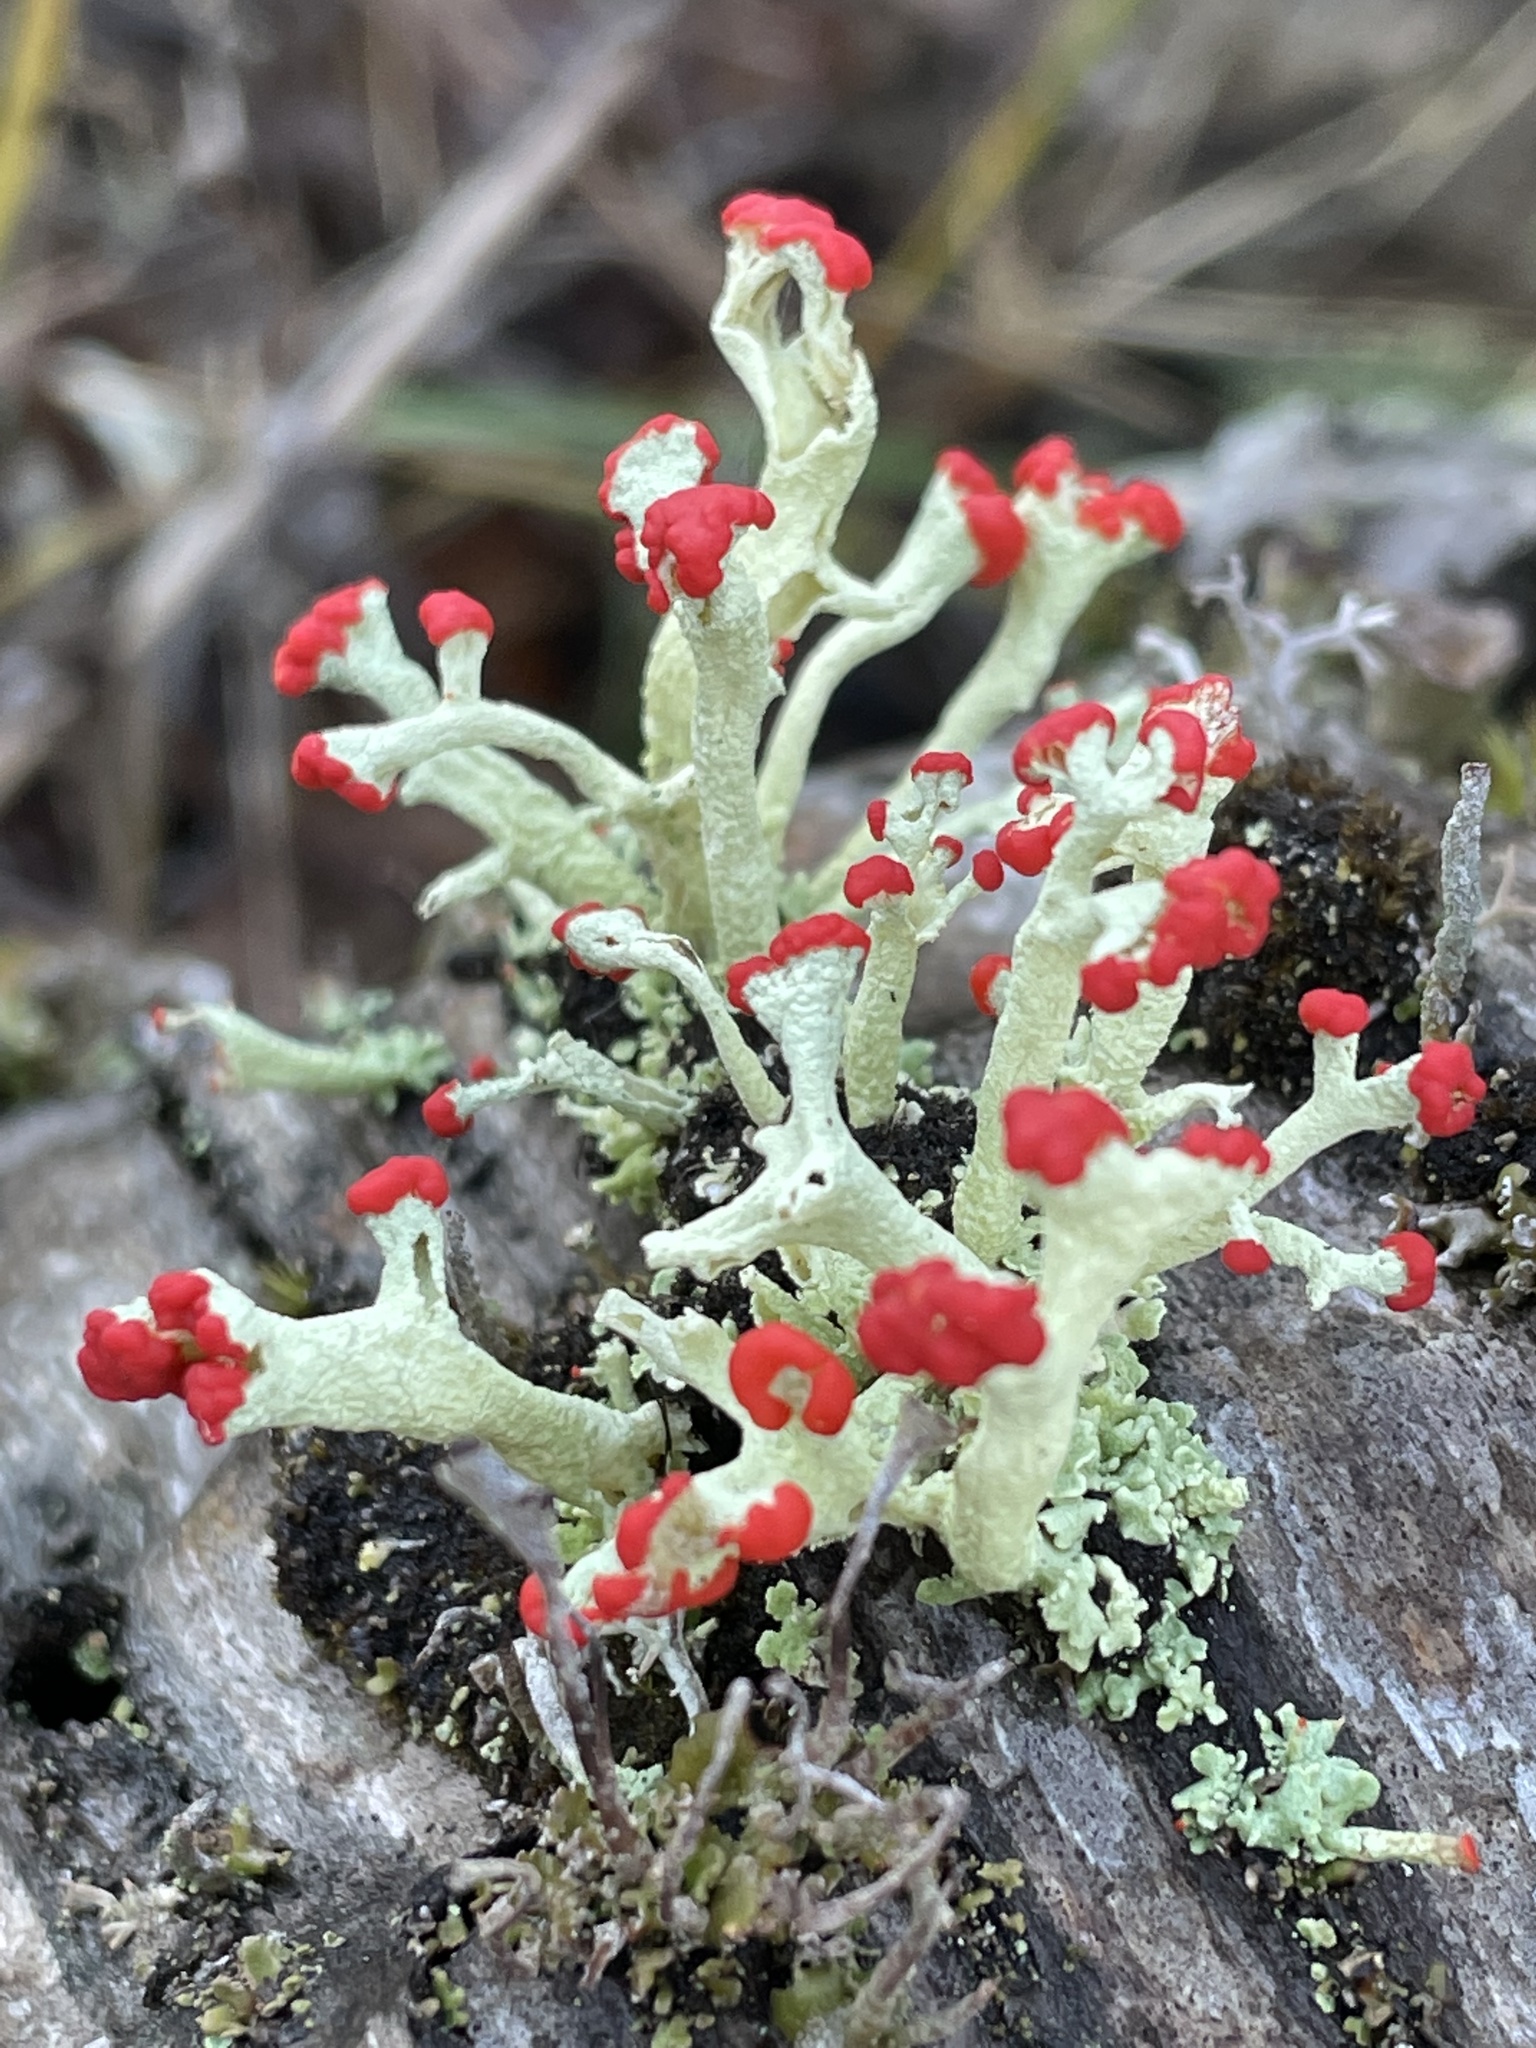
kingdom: Fungi
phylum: Ascomycota
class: Lecanoromycetes
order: Lecanorales
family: Cladoniaceae
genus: Cladonia
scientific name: Cladonia cristatella
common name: British soldier lichen
